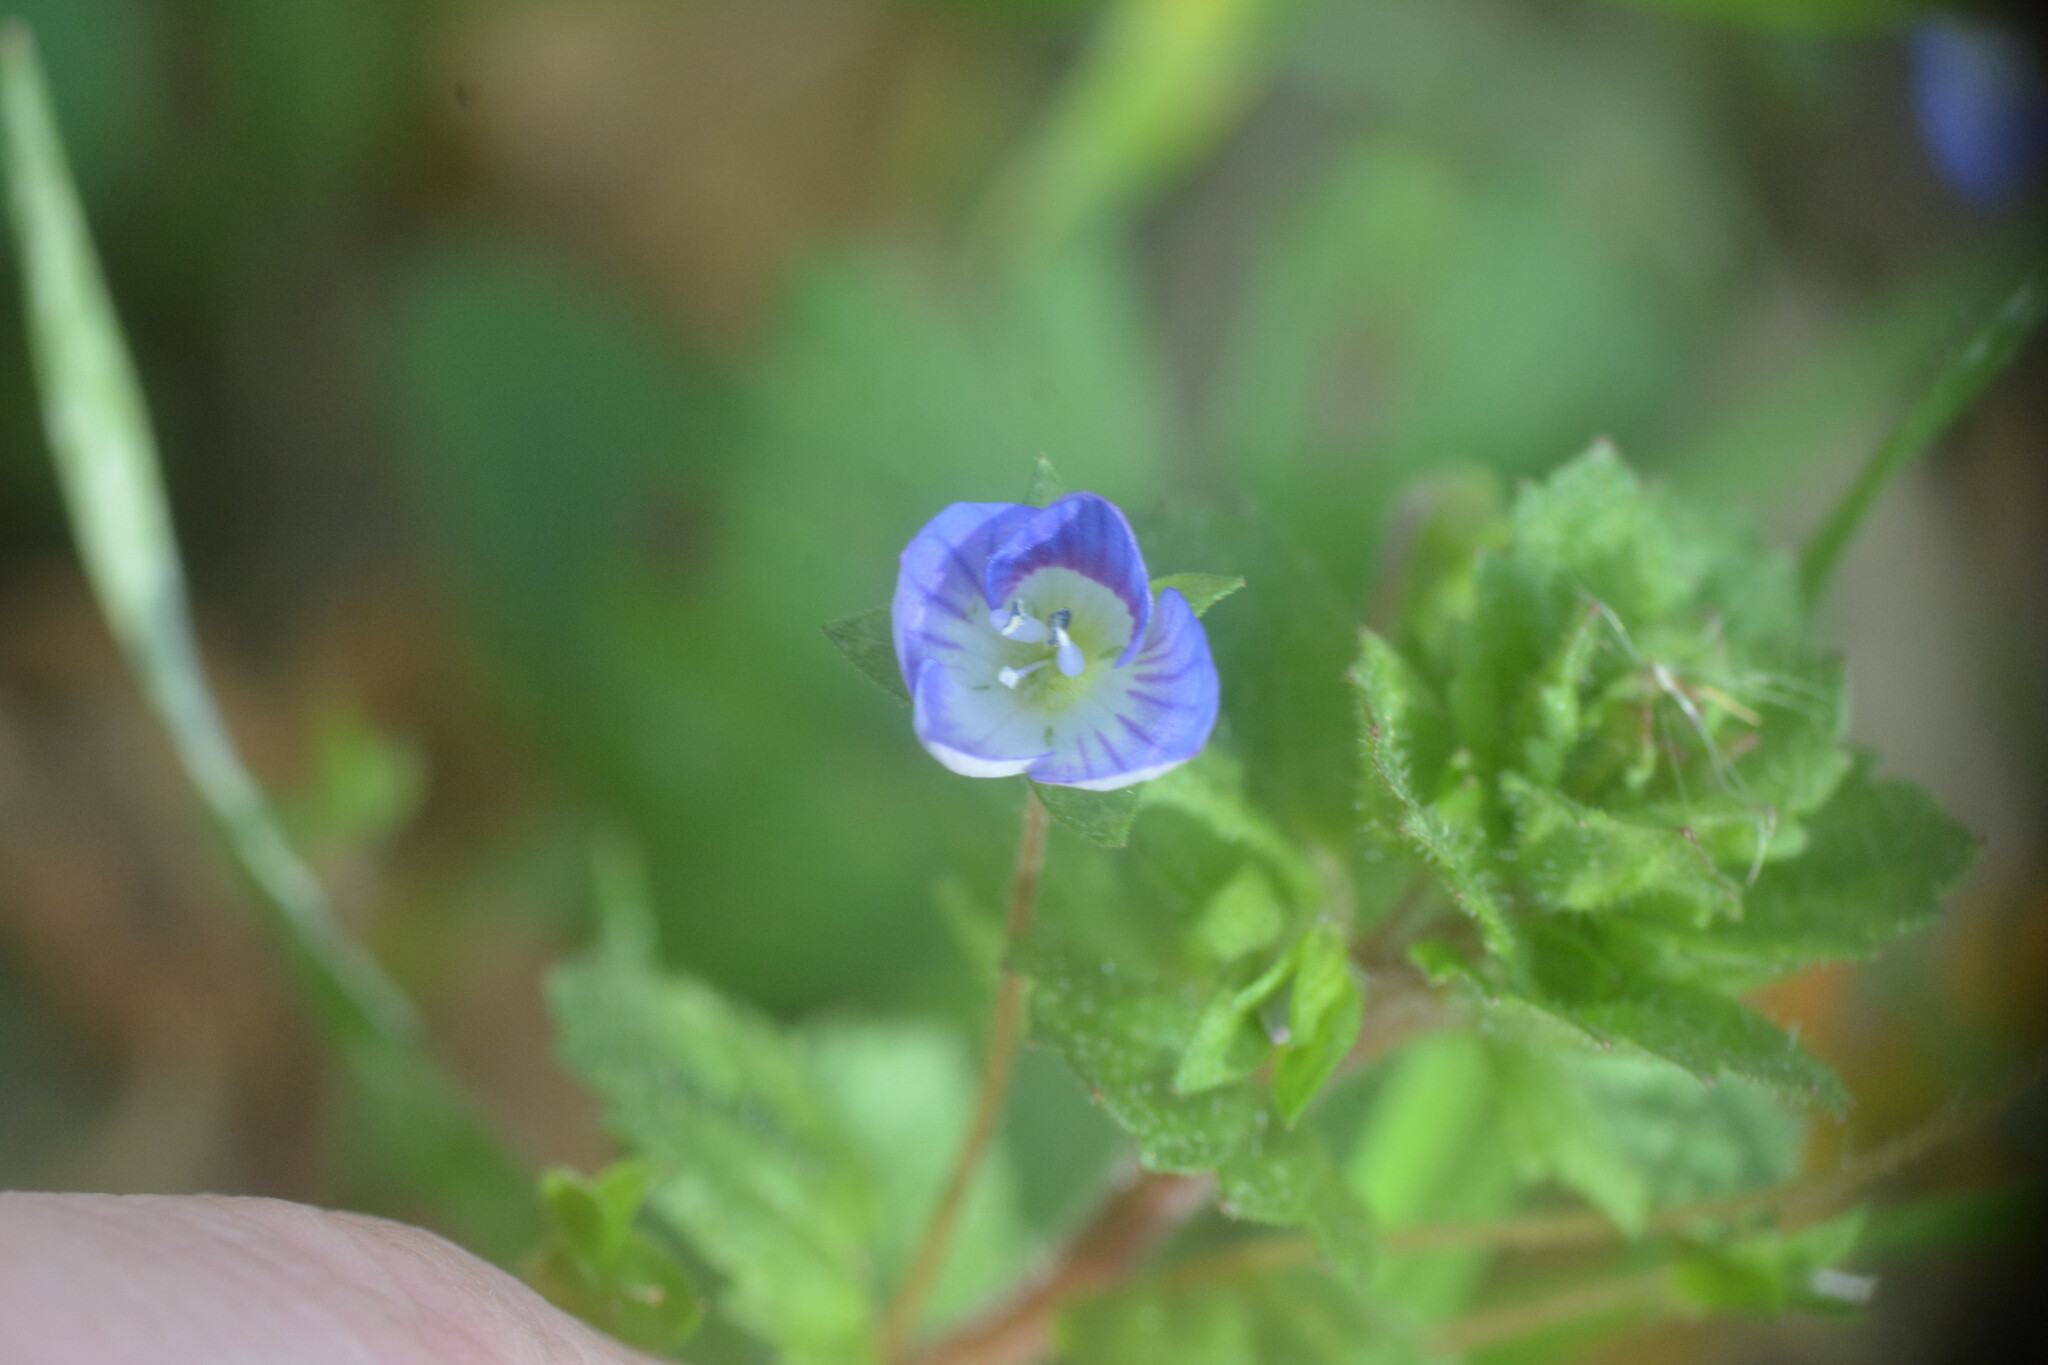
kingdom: Plantae
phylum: Tracheophyta
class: Magnoliopsida
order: Lamiales
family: Plantaginaceae
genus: Veronica
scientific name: Veronica persica
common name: Common field-speedwell
